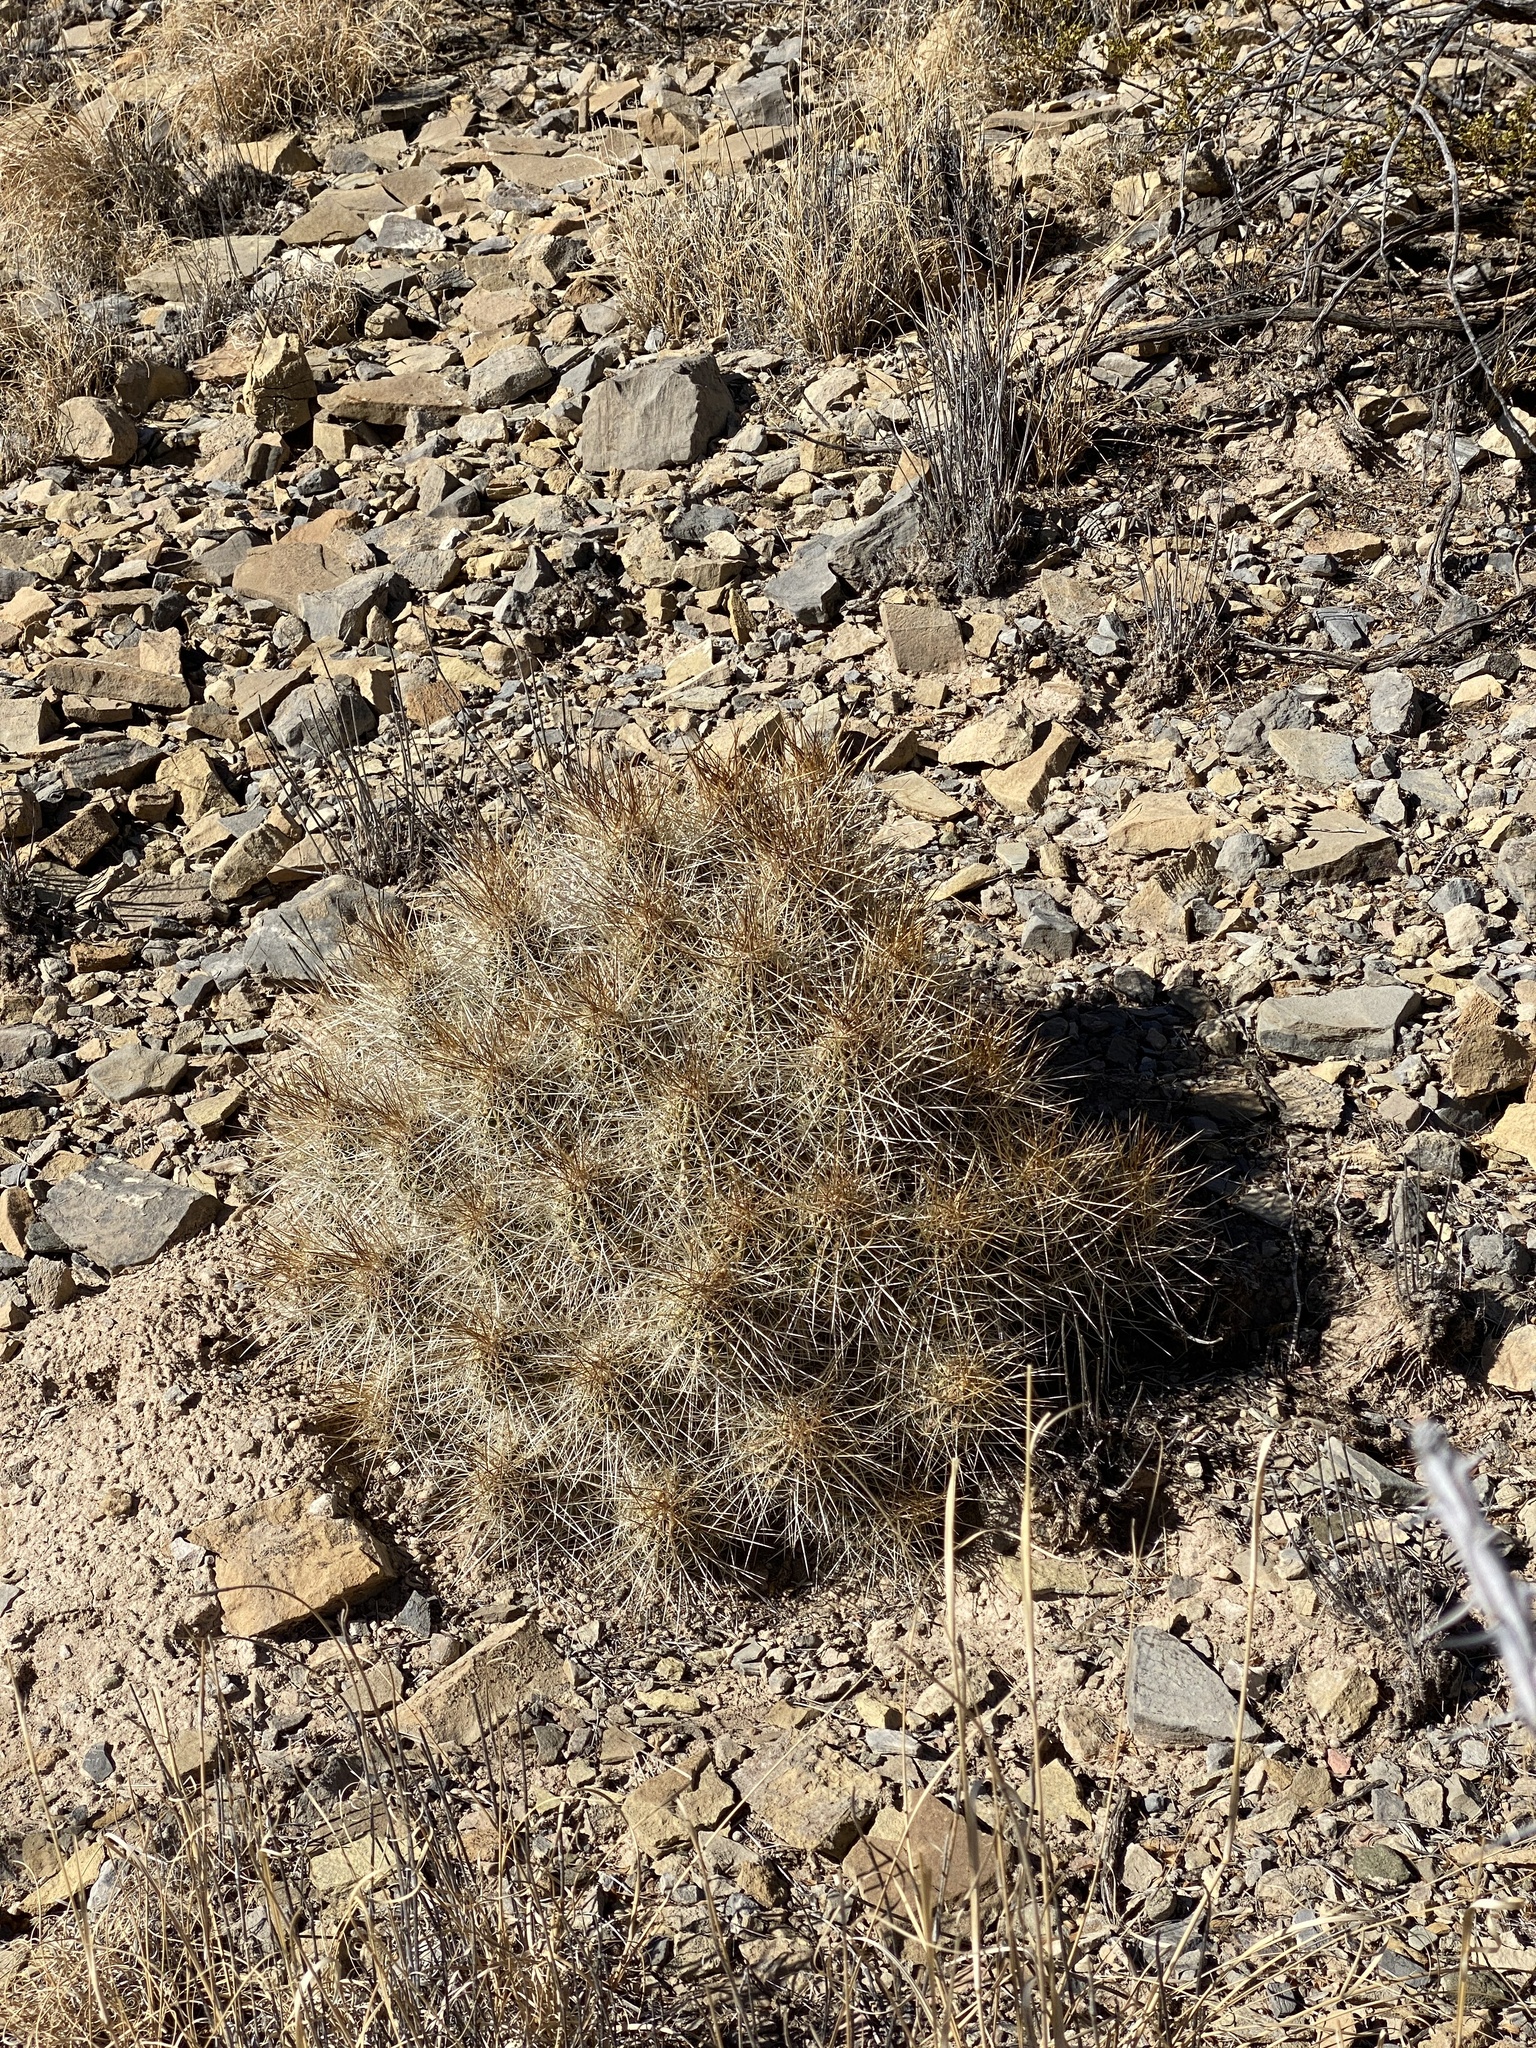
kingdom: Plantae
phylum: Tracheophyta
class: Magnoliopsida
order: Caryophyllales
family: Cactaceae
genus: Echinocereus
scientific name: Echinocereus stramineus
